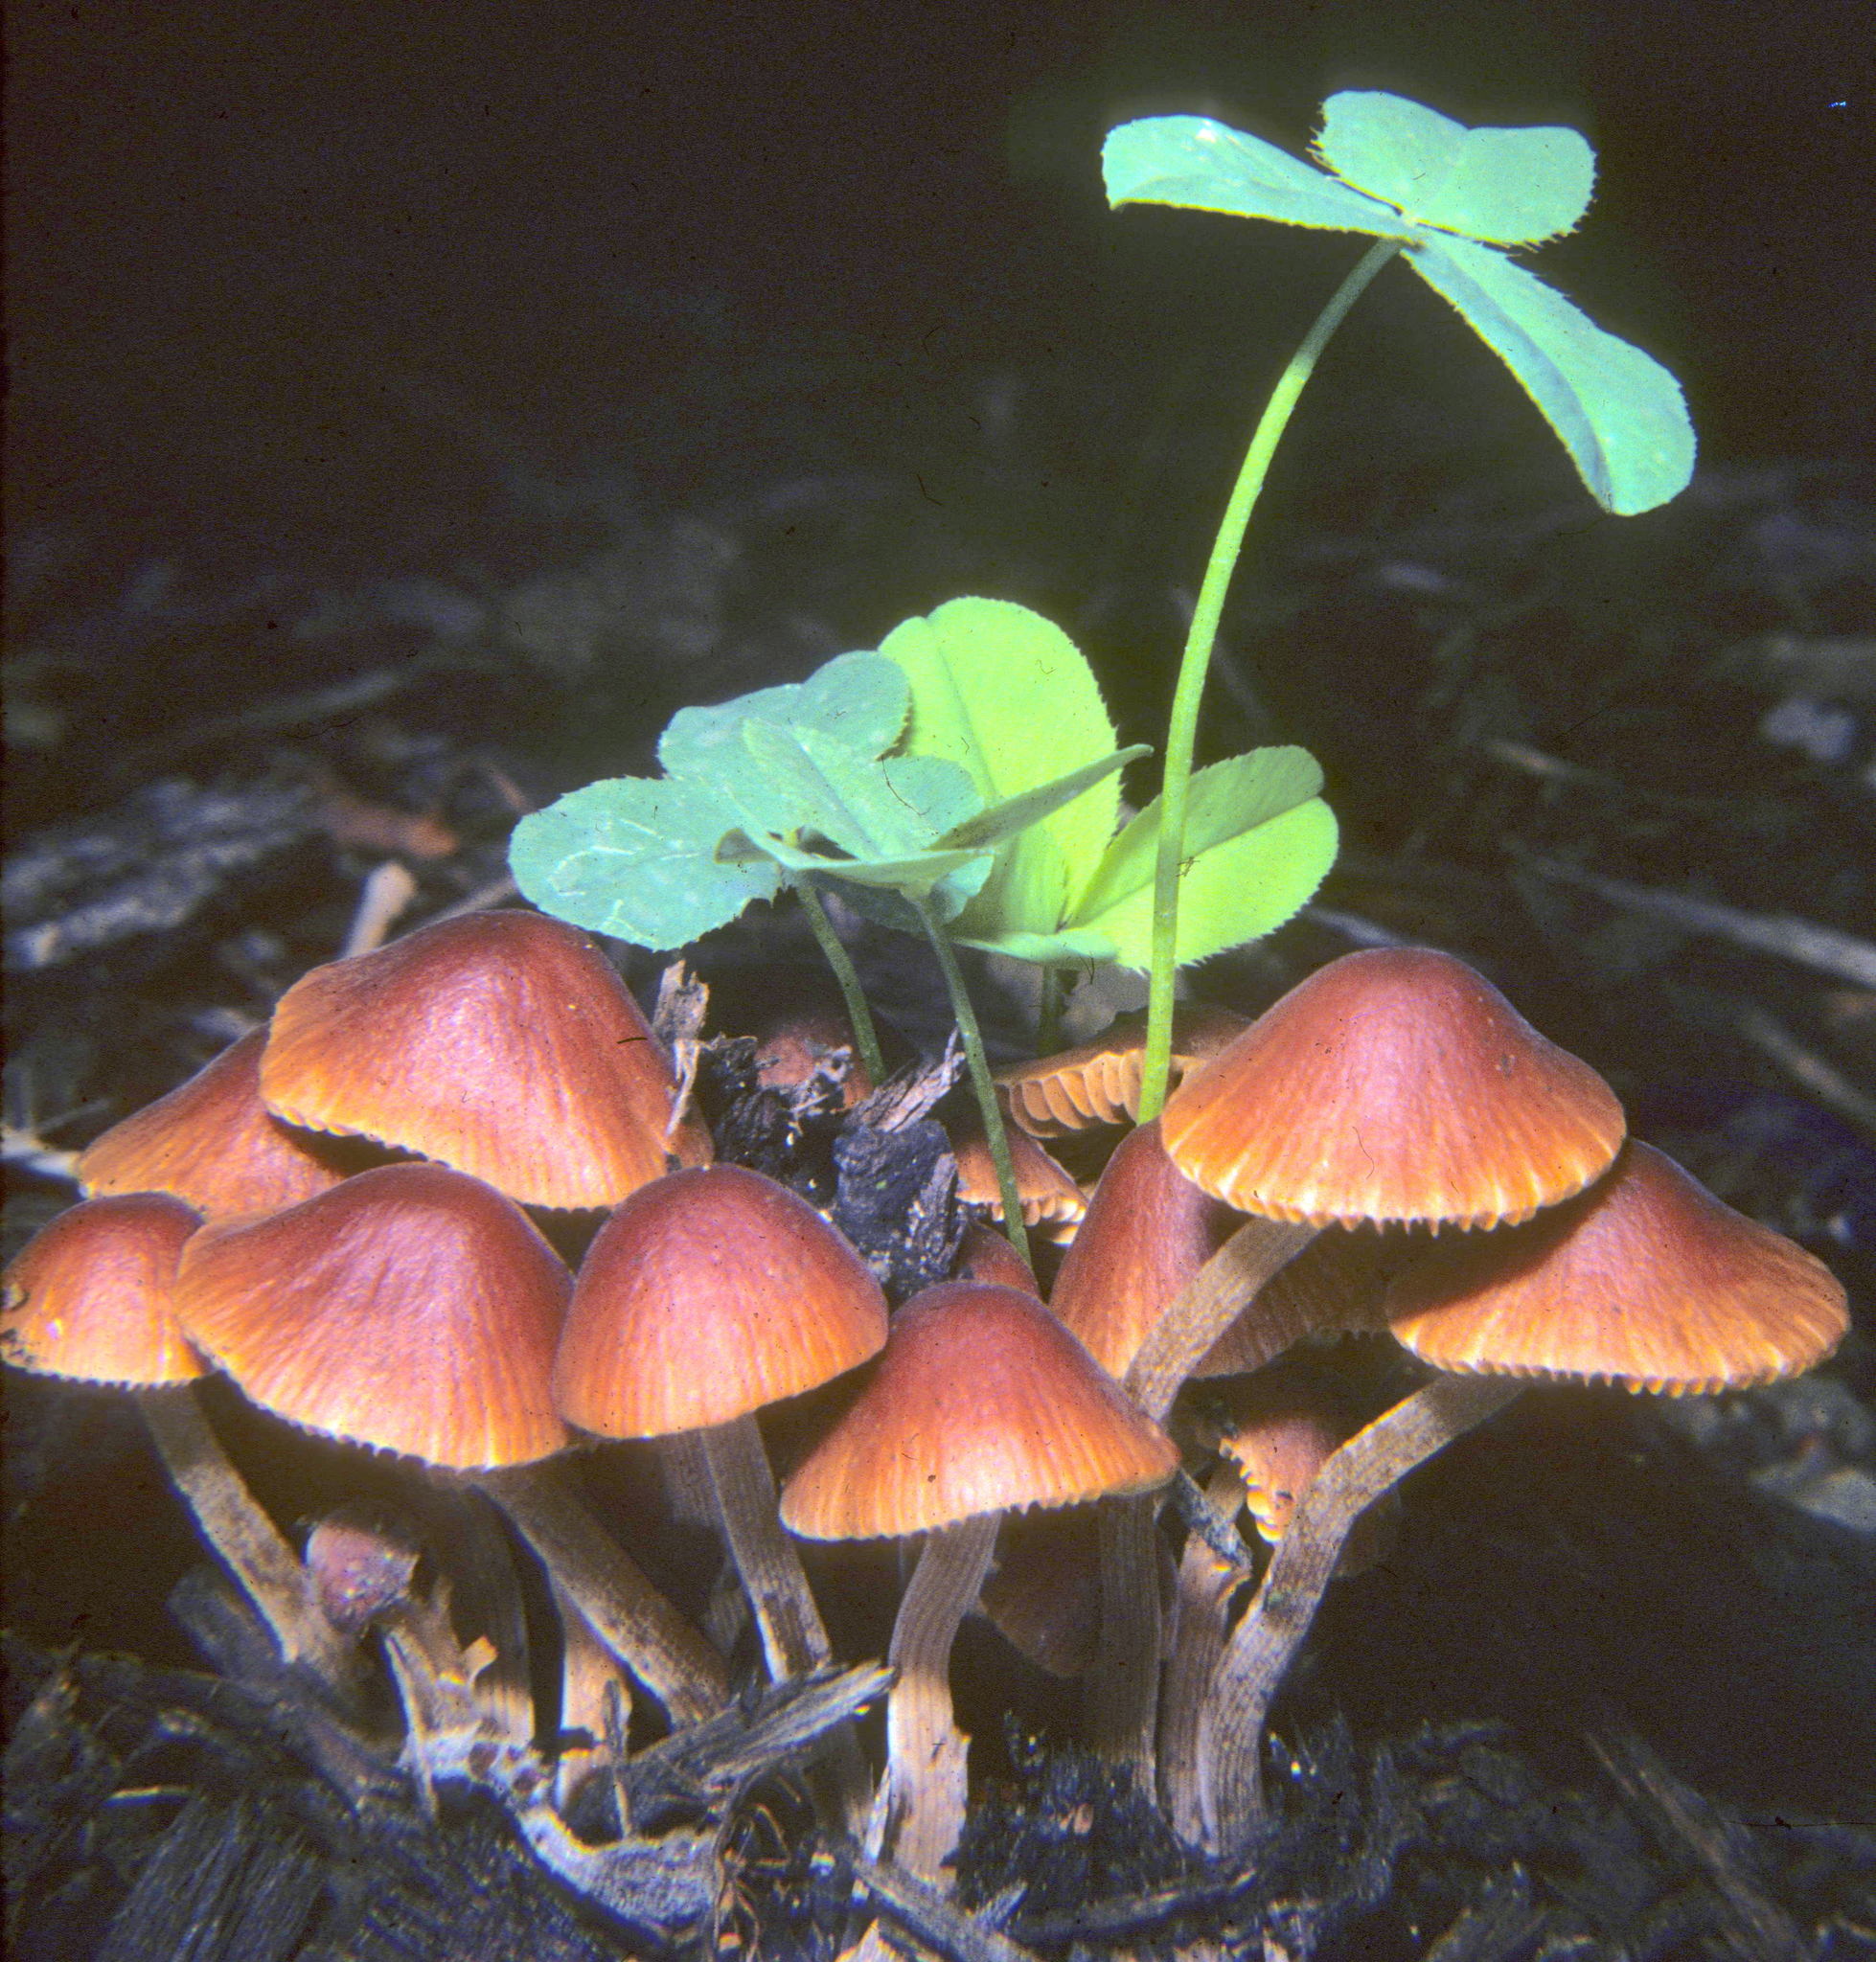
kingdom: Fungi
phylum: Basidiomycota
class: Agaricomycetes
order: Agaricales
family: Bolbitiaceae
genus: Conocybe
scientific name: Conocybe pubescens
